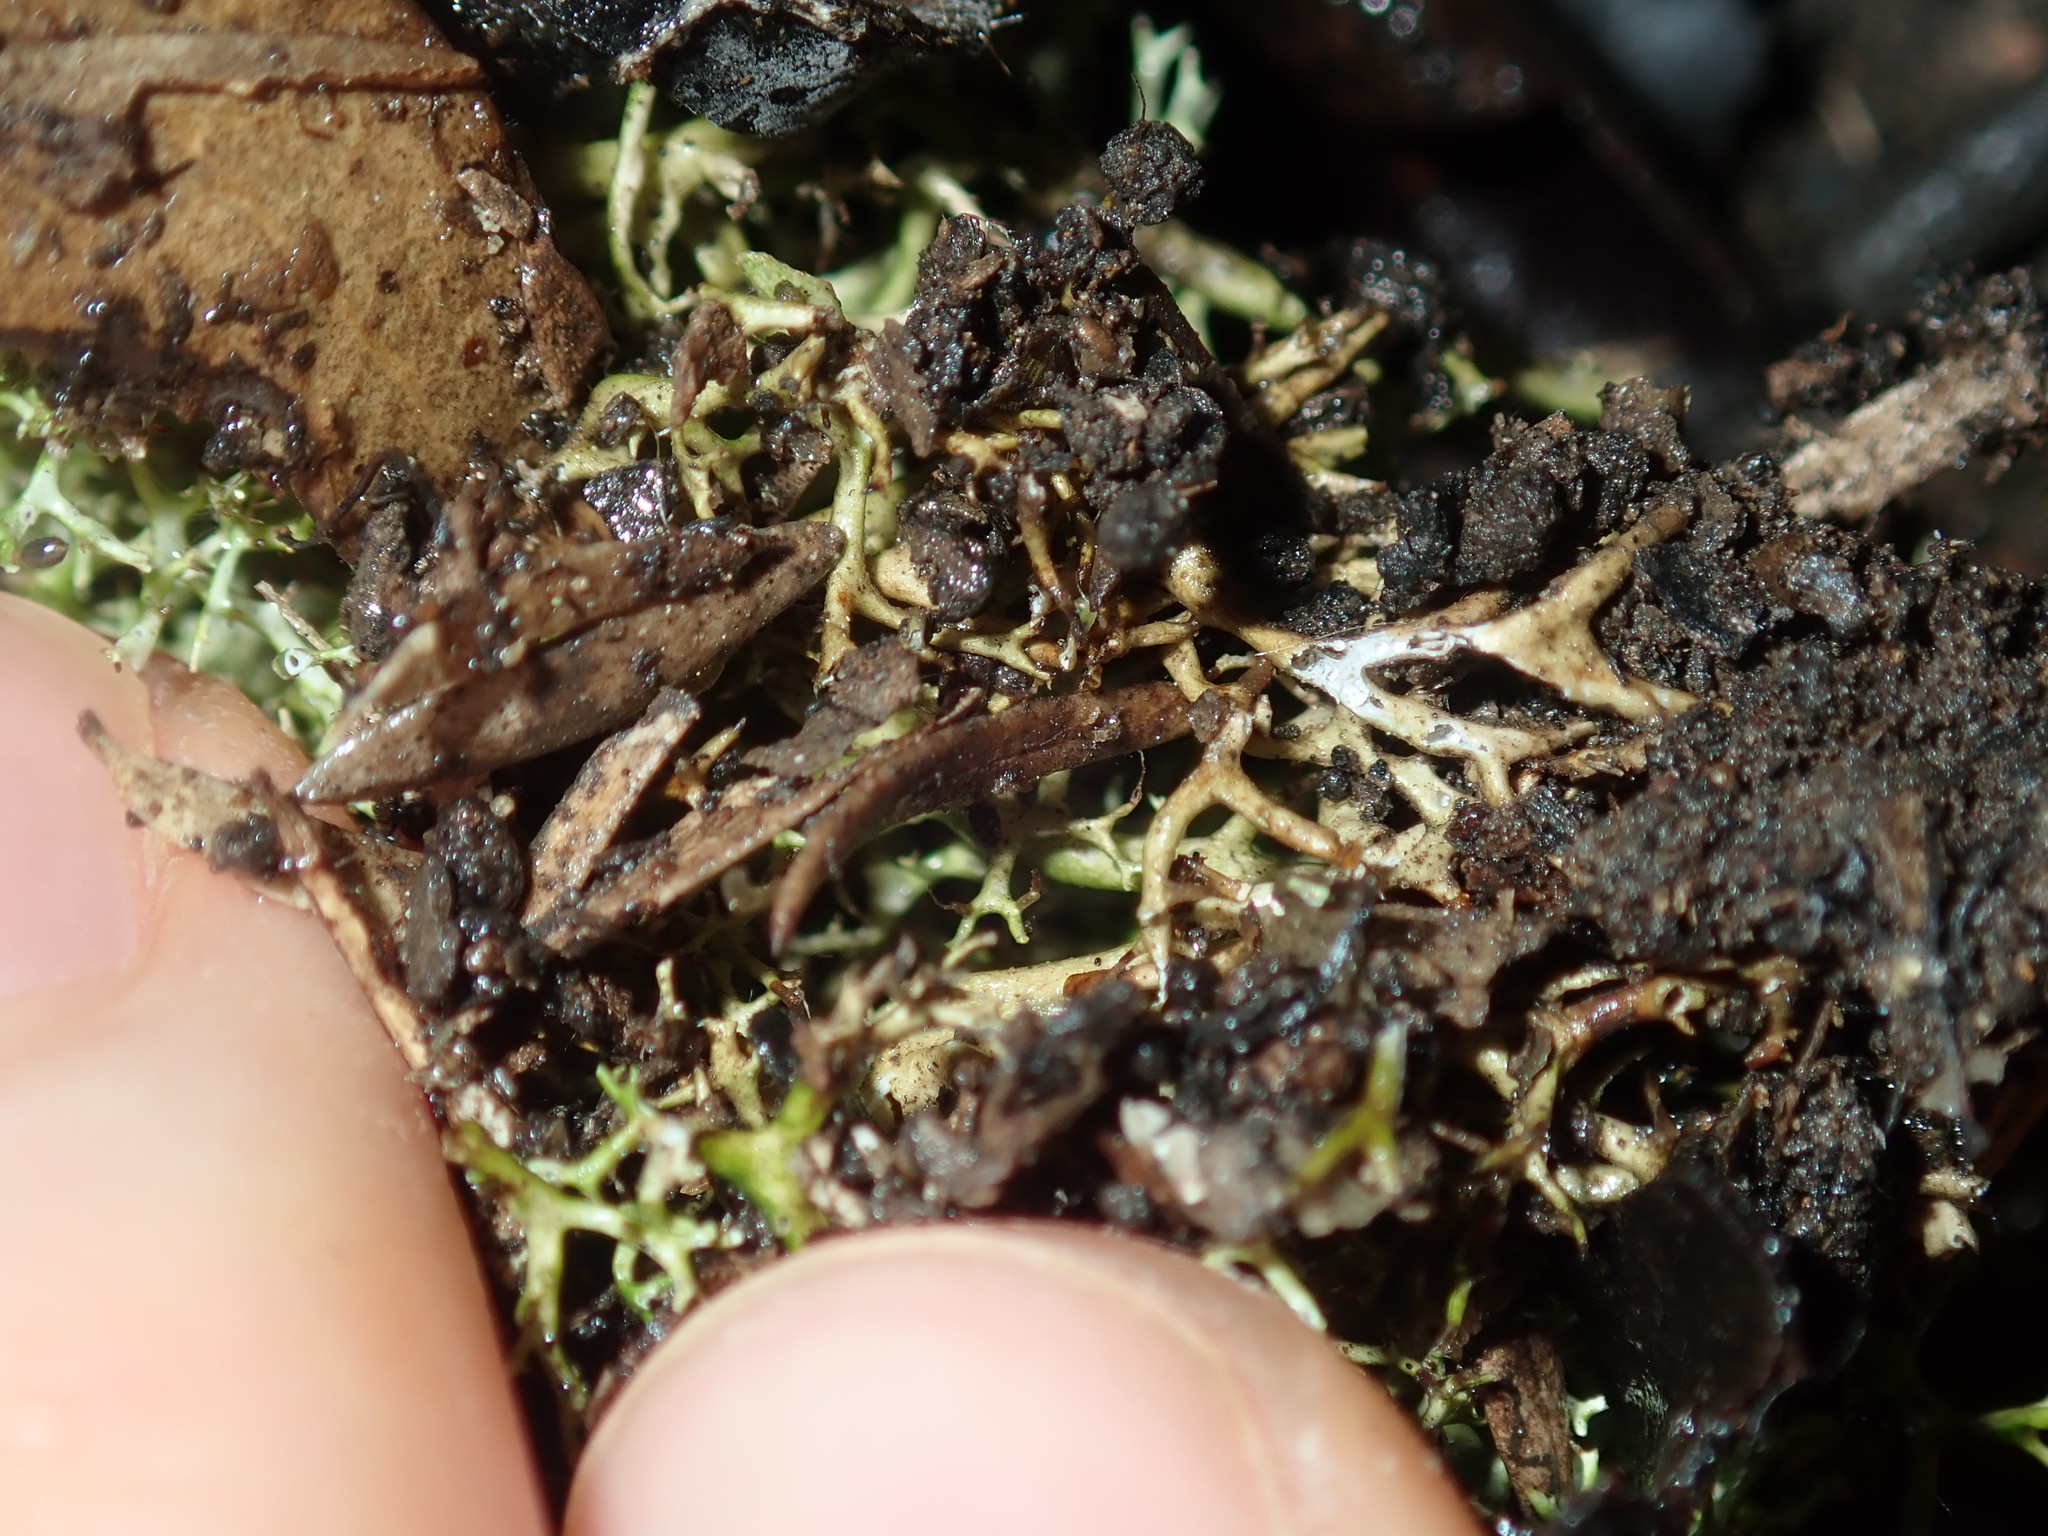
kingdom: Fungi
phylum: Ascomycota
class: Lecanoromycetes
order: Lecanorales
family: Cladoniaceae
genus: Cladia
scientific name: Cladia aggregata
